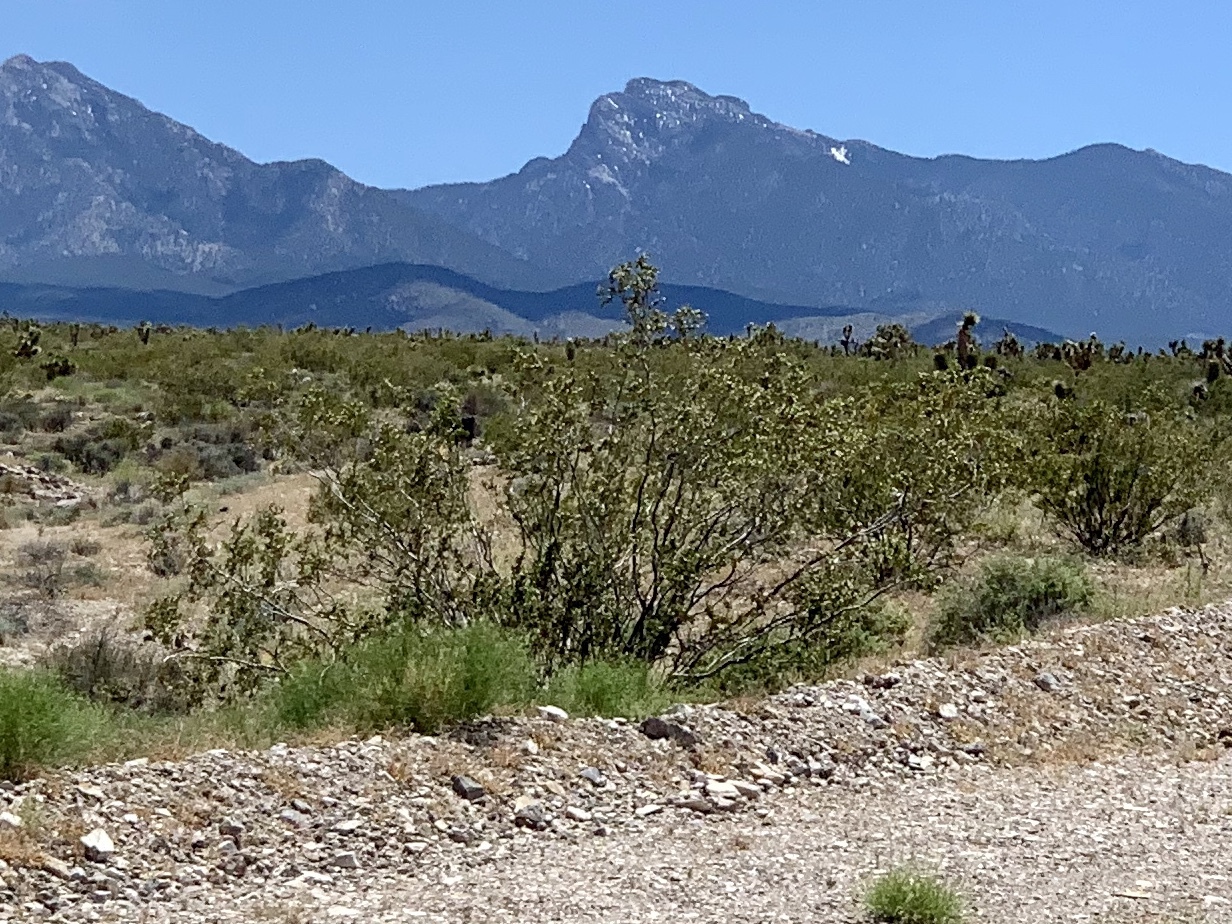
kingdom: Plantae
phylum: Tracheophyta
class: Magnoliopsida
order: Zygophyllales
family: Zygophyllaceae
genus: Larrea
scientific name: Larrea tridentata
